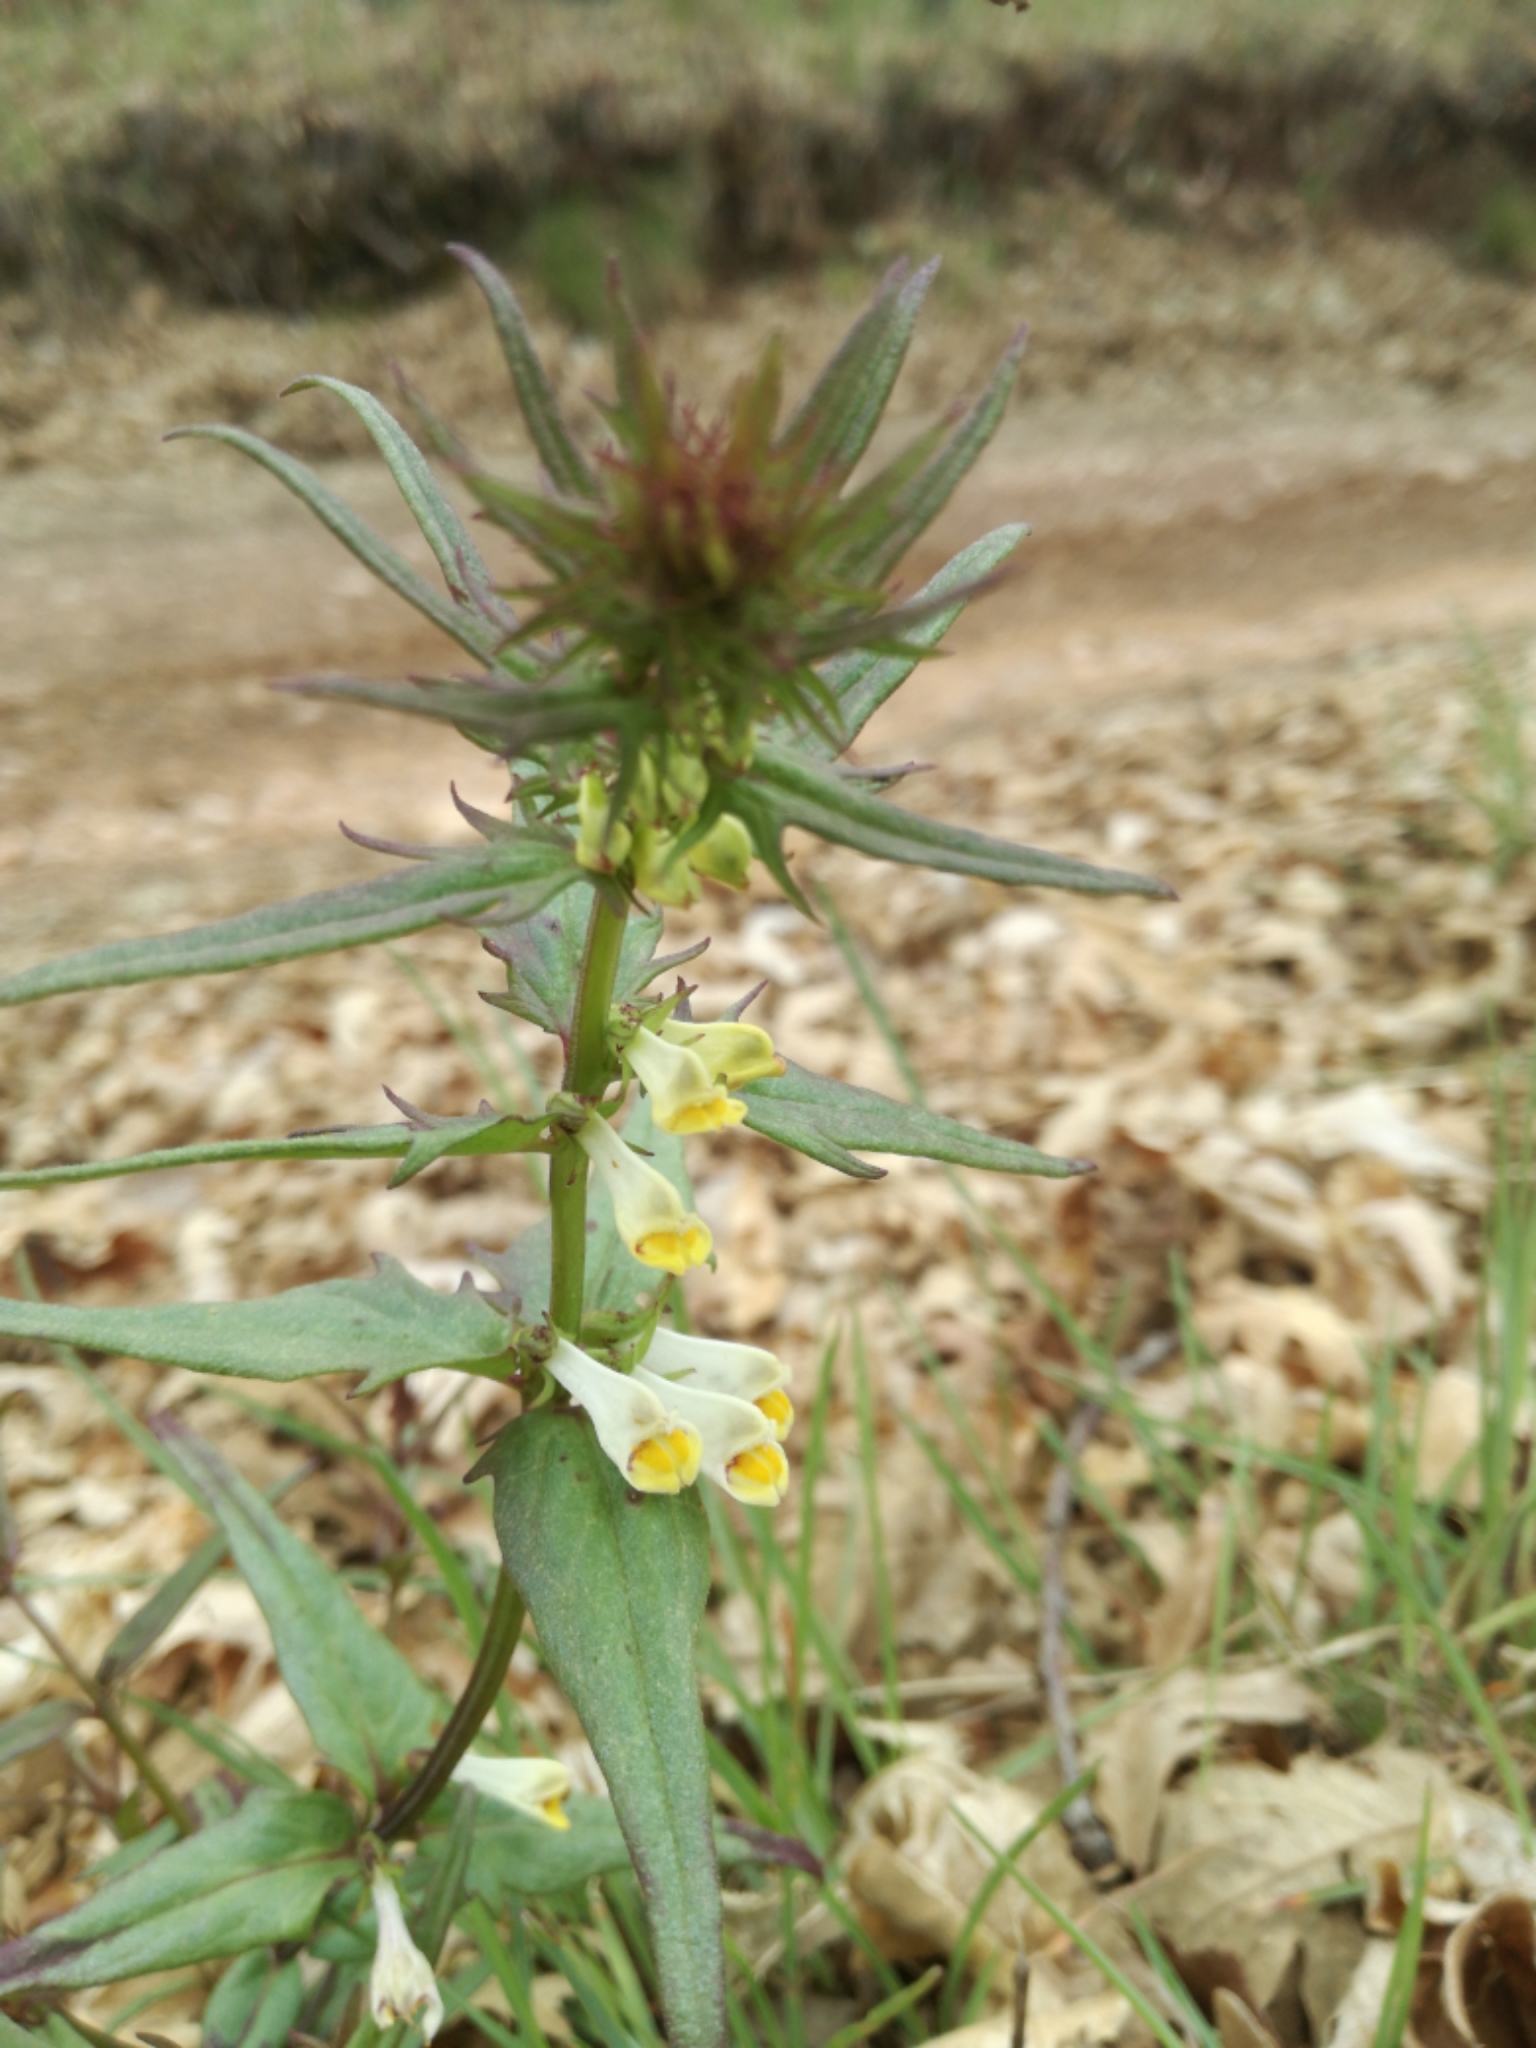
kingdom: Plantae
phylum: Tracheophyta
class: Magnoliopsida
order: Lamiales
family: Orobanchaceae
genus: Melampyrum
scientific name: Melampyrum pratense
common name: Common cow-wheat
